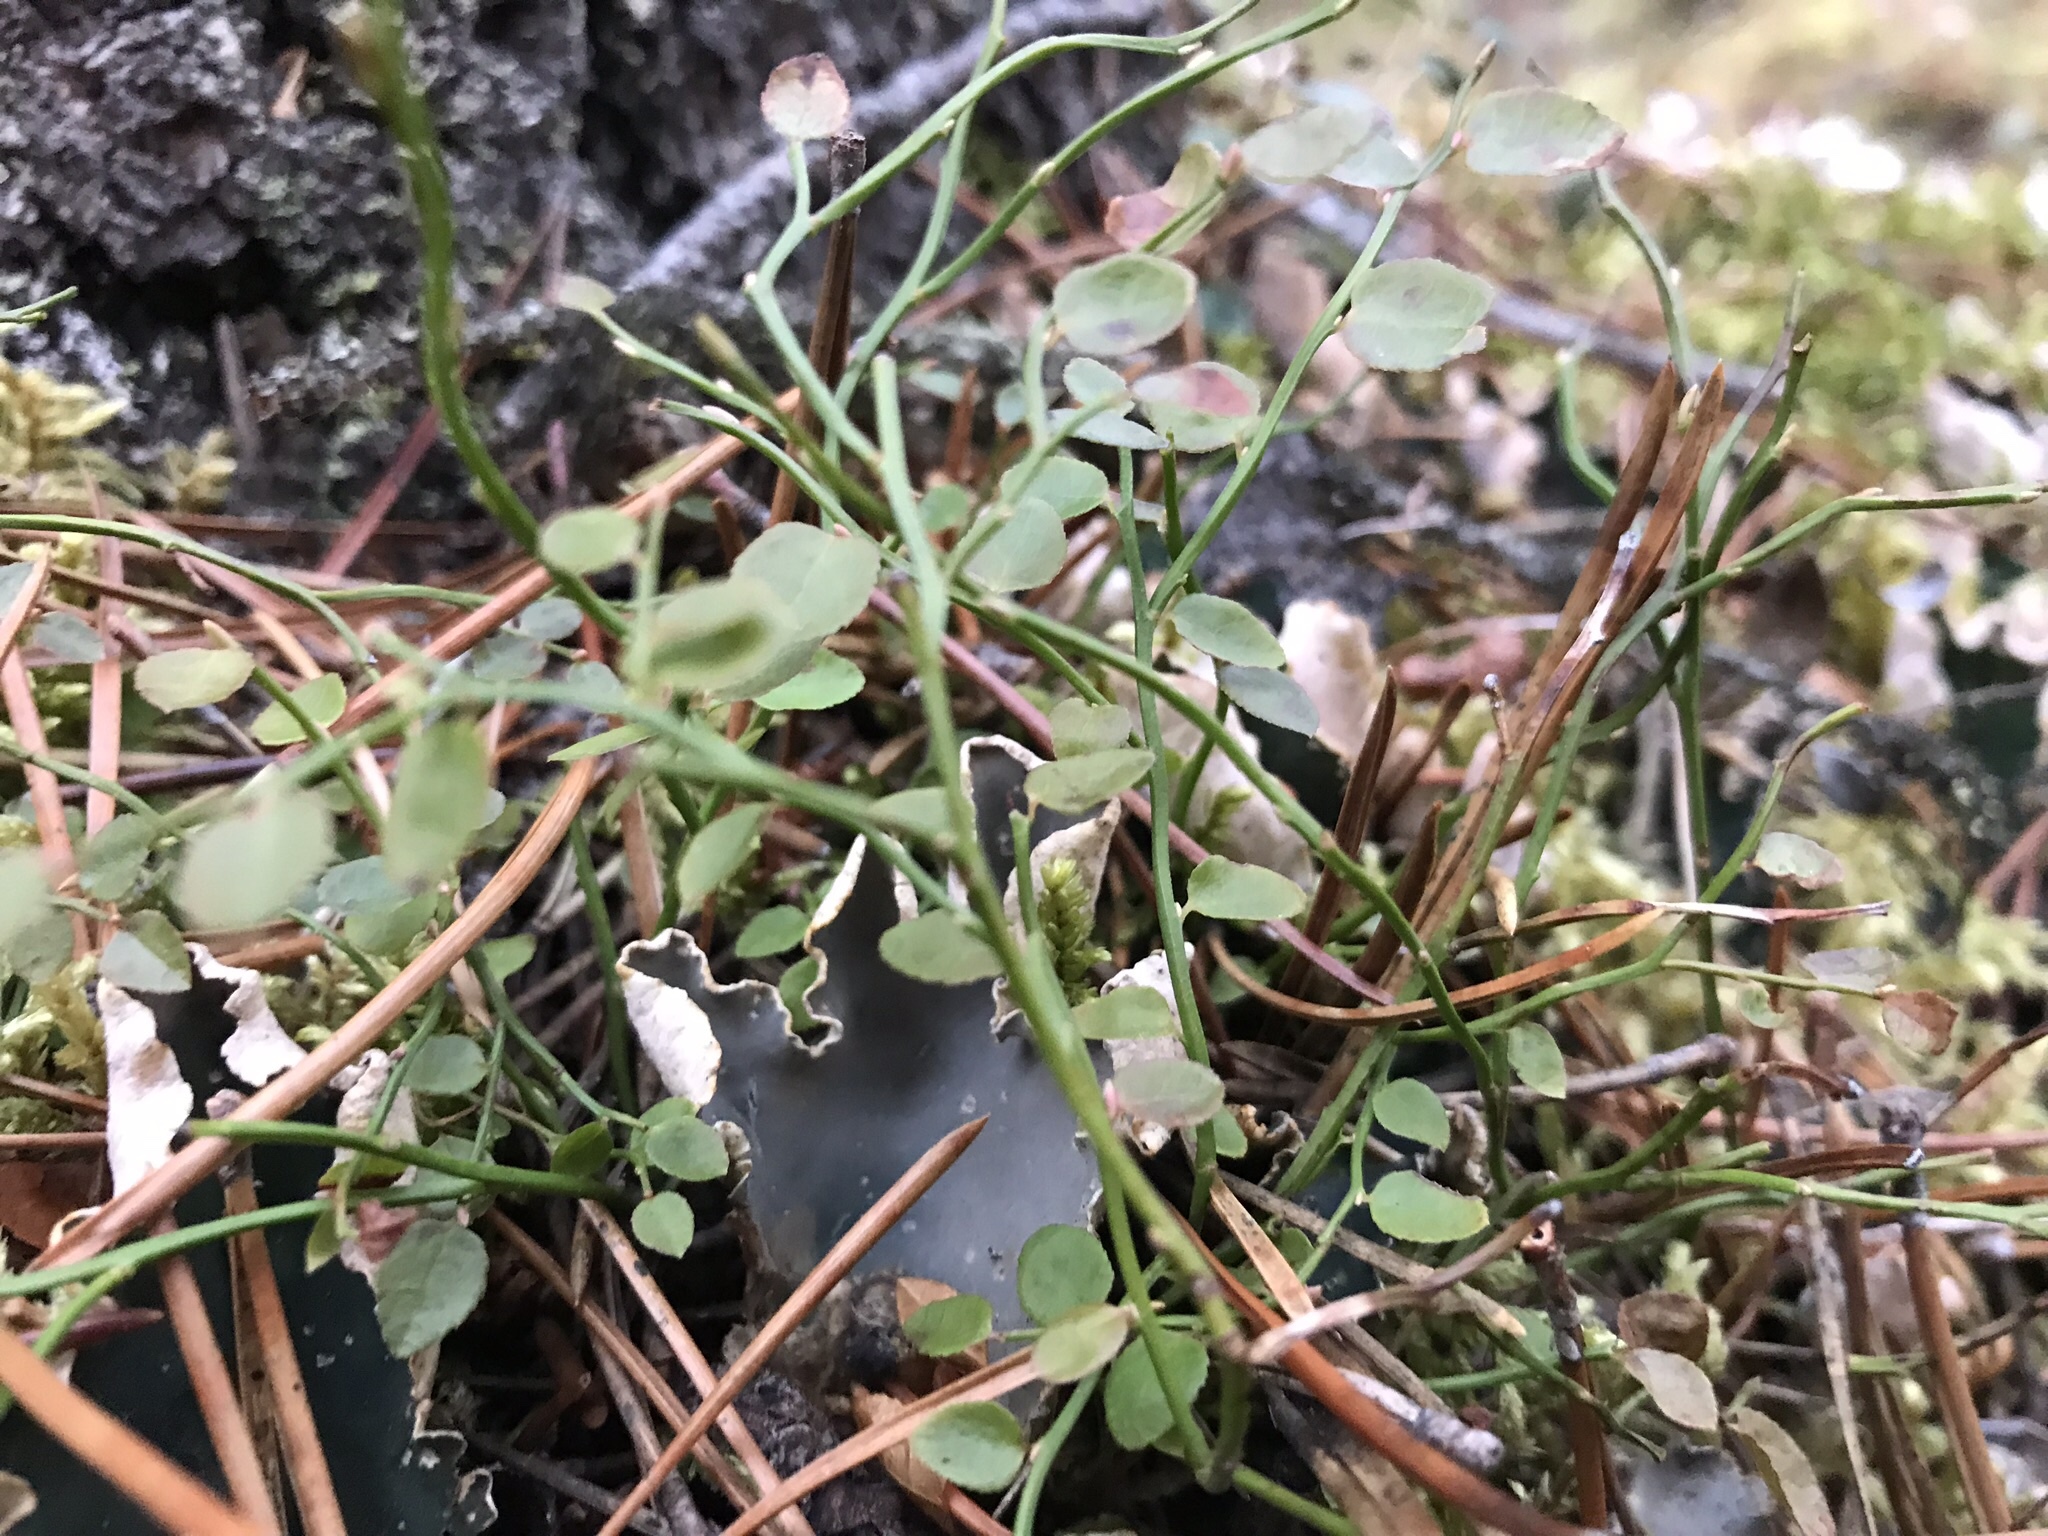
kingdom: Plantae
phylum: Tracheophyta
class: Magnoliopsida
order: Ericales
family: Ericaceae
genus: Vaccinium
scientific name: Vaccinium scoparium
